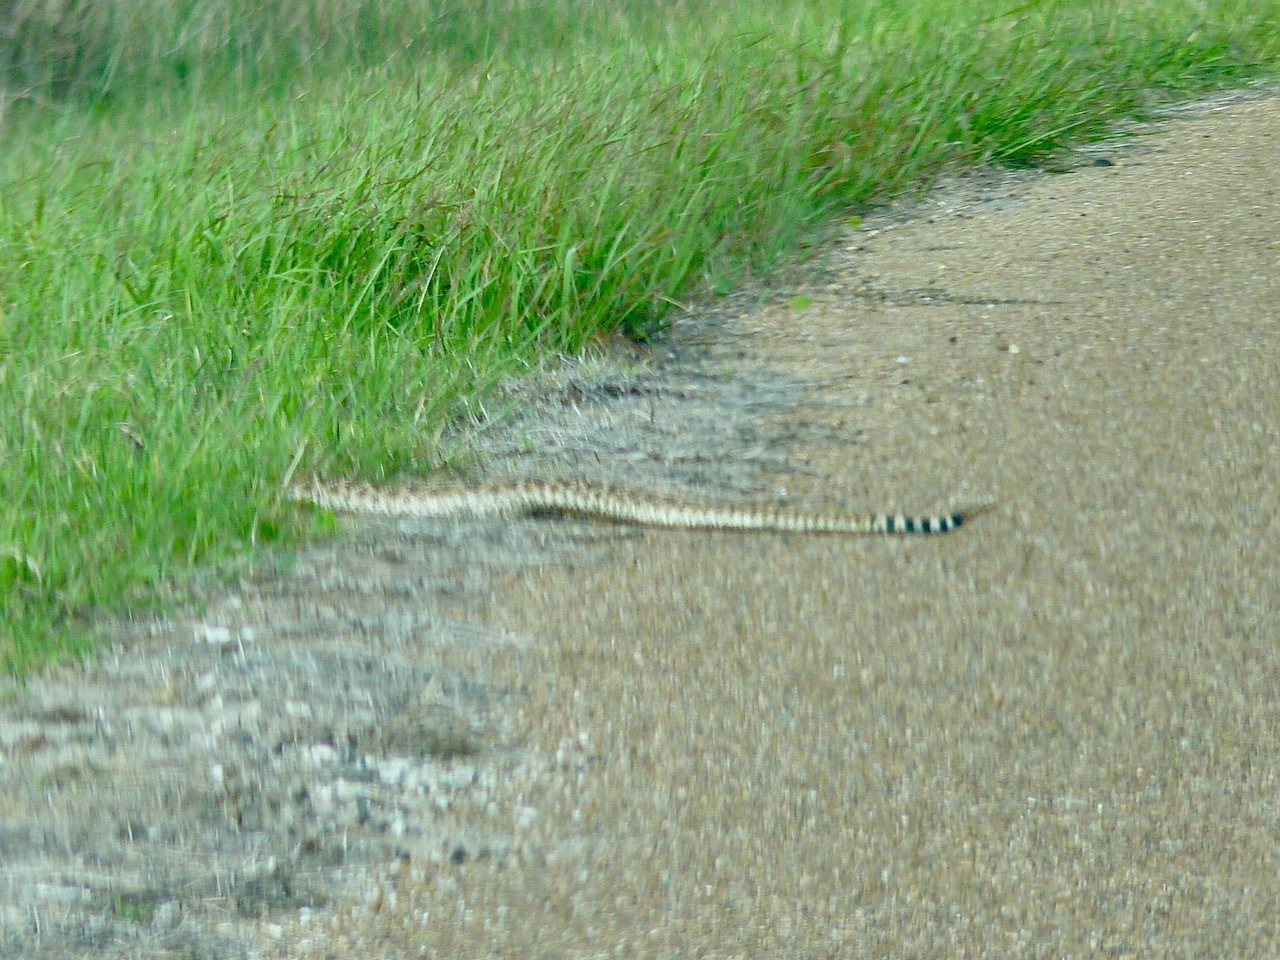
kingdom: Animalia
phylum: Chordata
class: Squamata
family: Viperidae
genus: Crotalus
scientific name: Crotalus atrox
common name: Western diamond-backed rattlesnake
